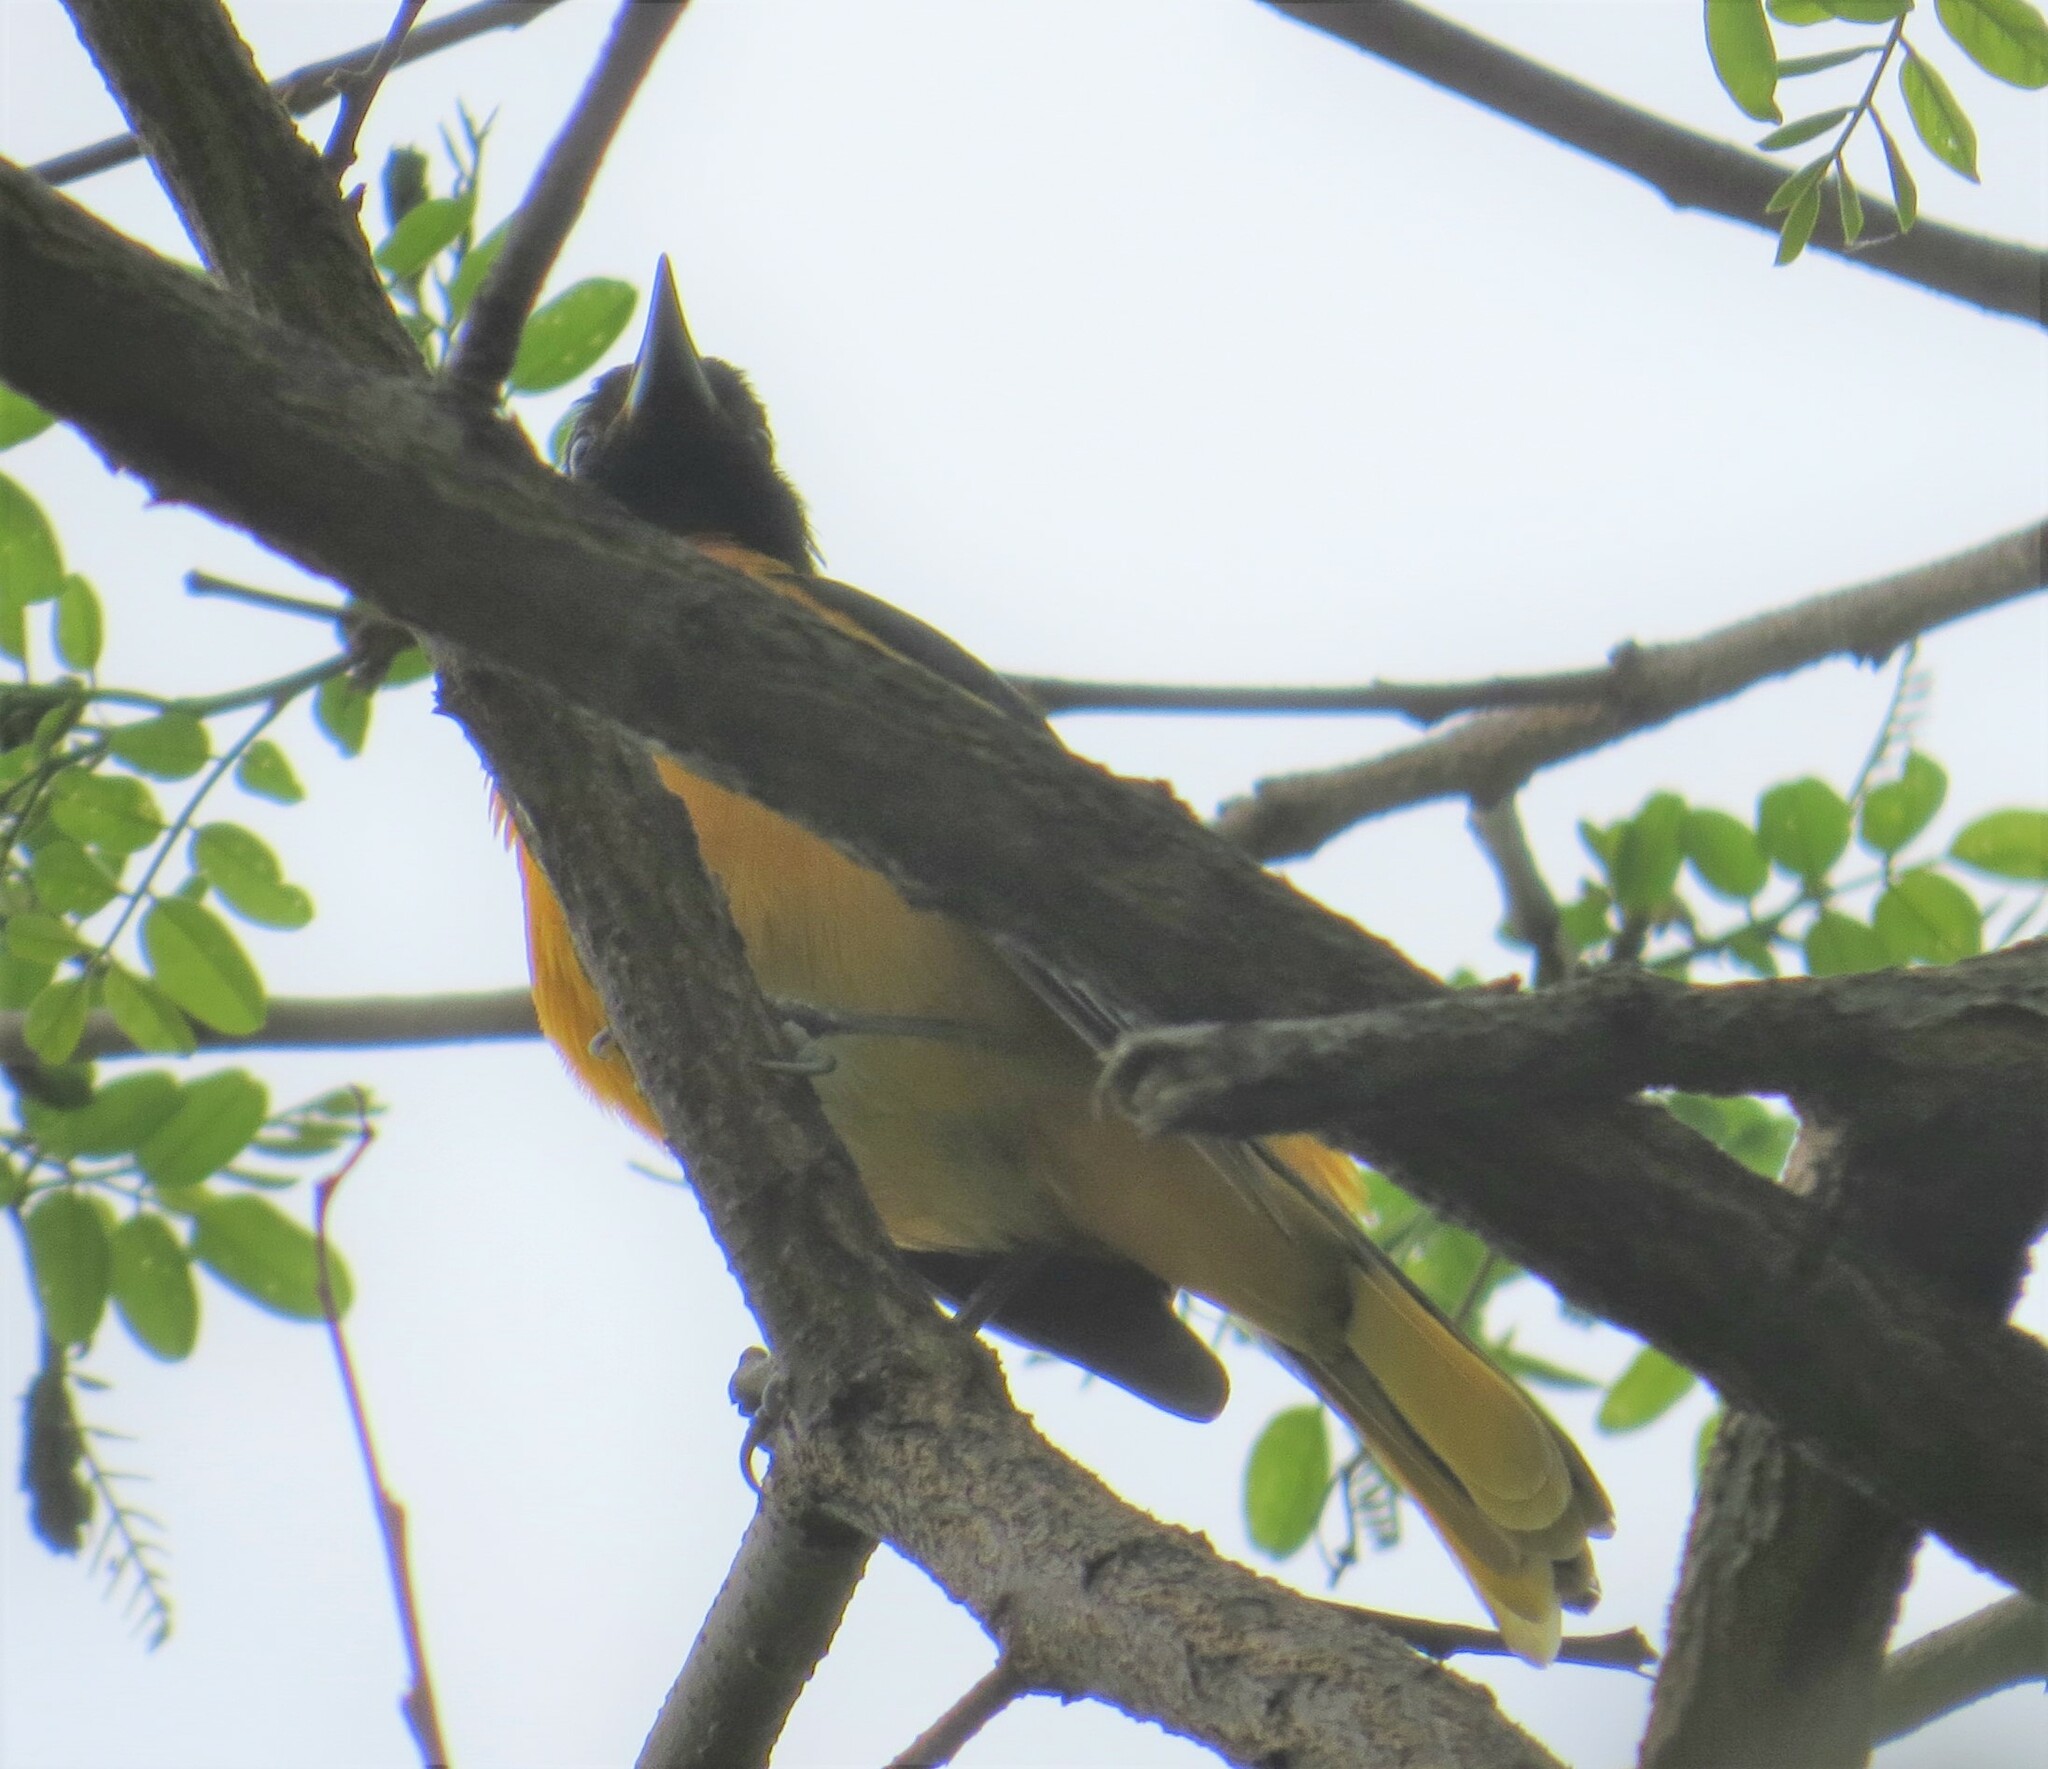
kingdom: Animalia
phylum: Chordata
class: Aves
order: Passeriformes
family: Icteridae
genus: Icterus
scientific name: Icterus galbula
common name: Baltimore oriole
